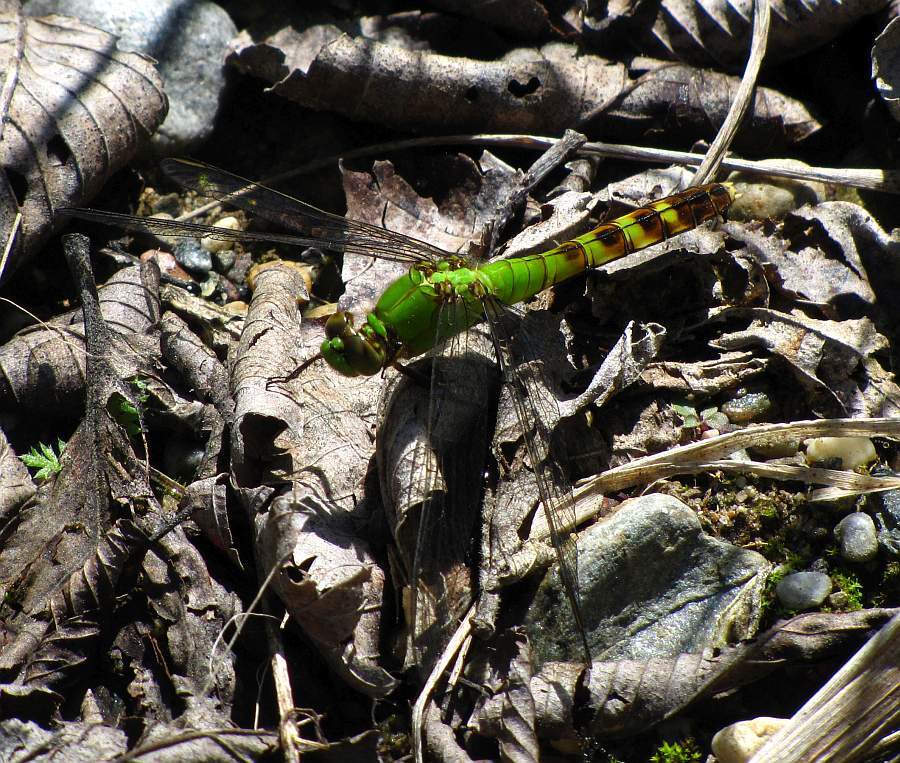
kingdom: Animalia
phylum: Arthropoda
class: Insecta
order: Odonata
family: Libellulidae
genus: Erythemis
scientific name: Erythemis simplicicollis
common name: Eastern pondhawk
